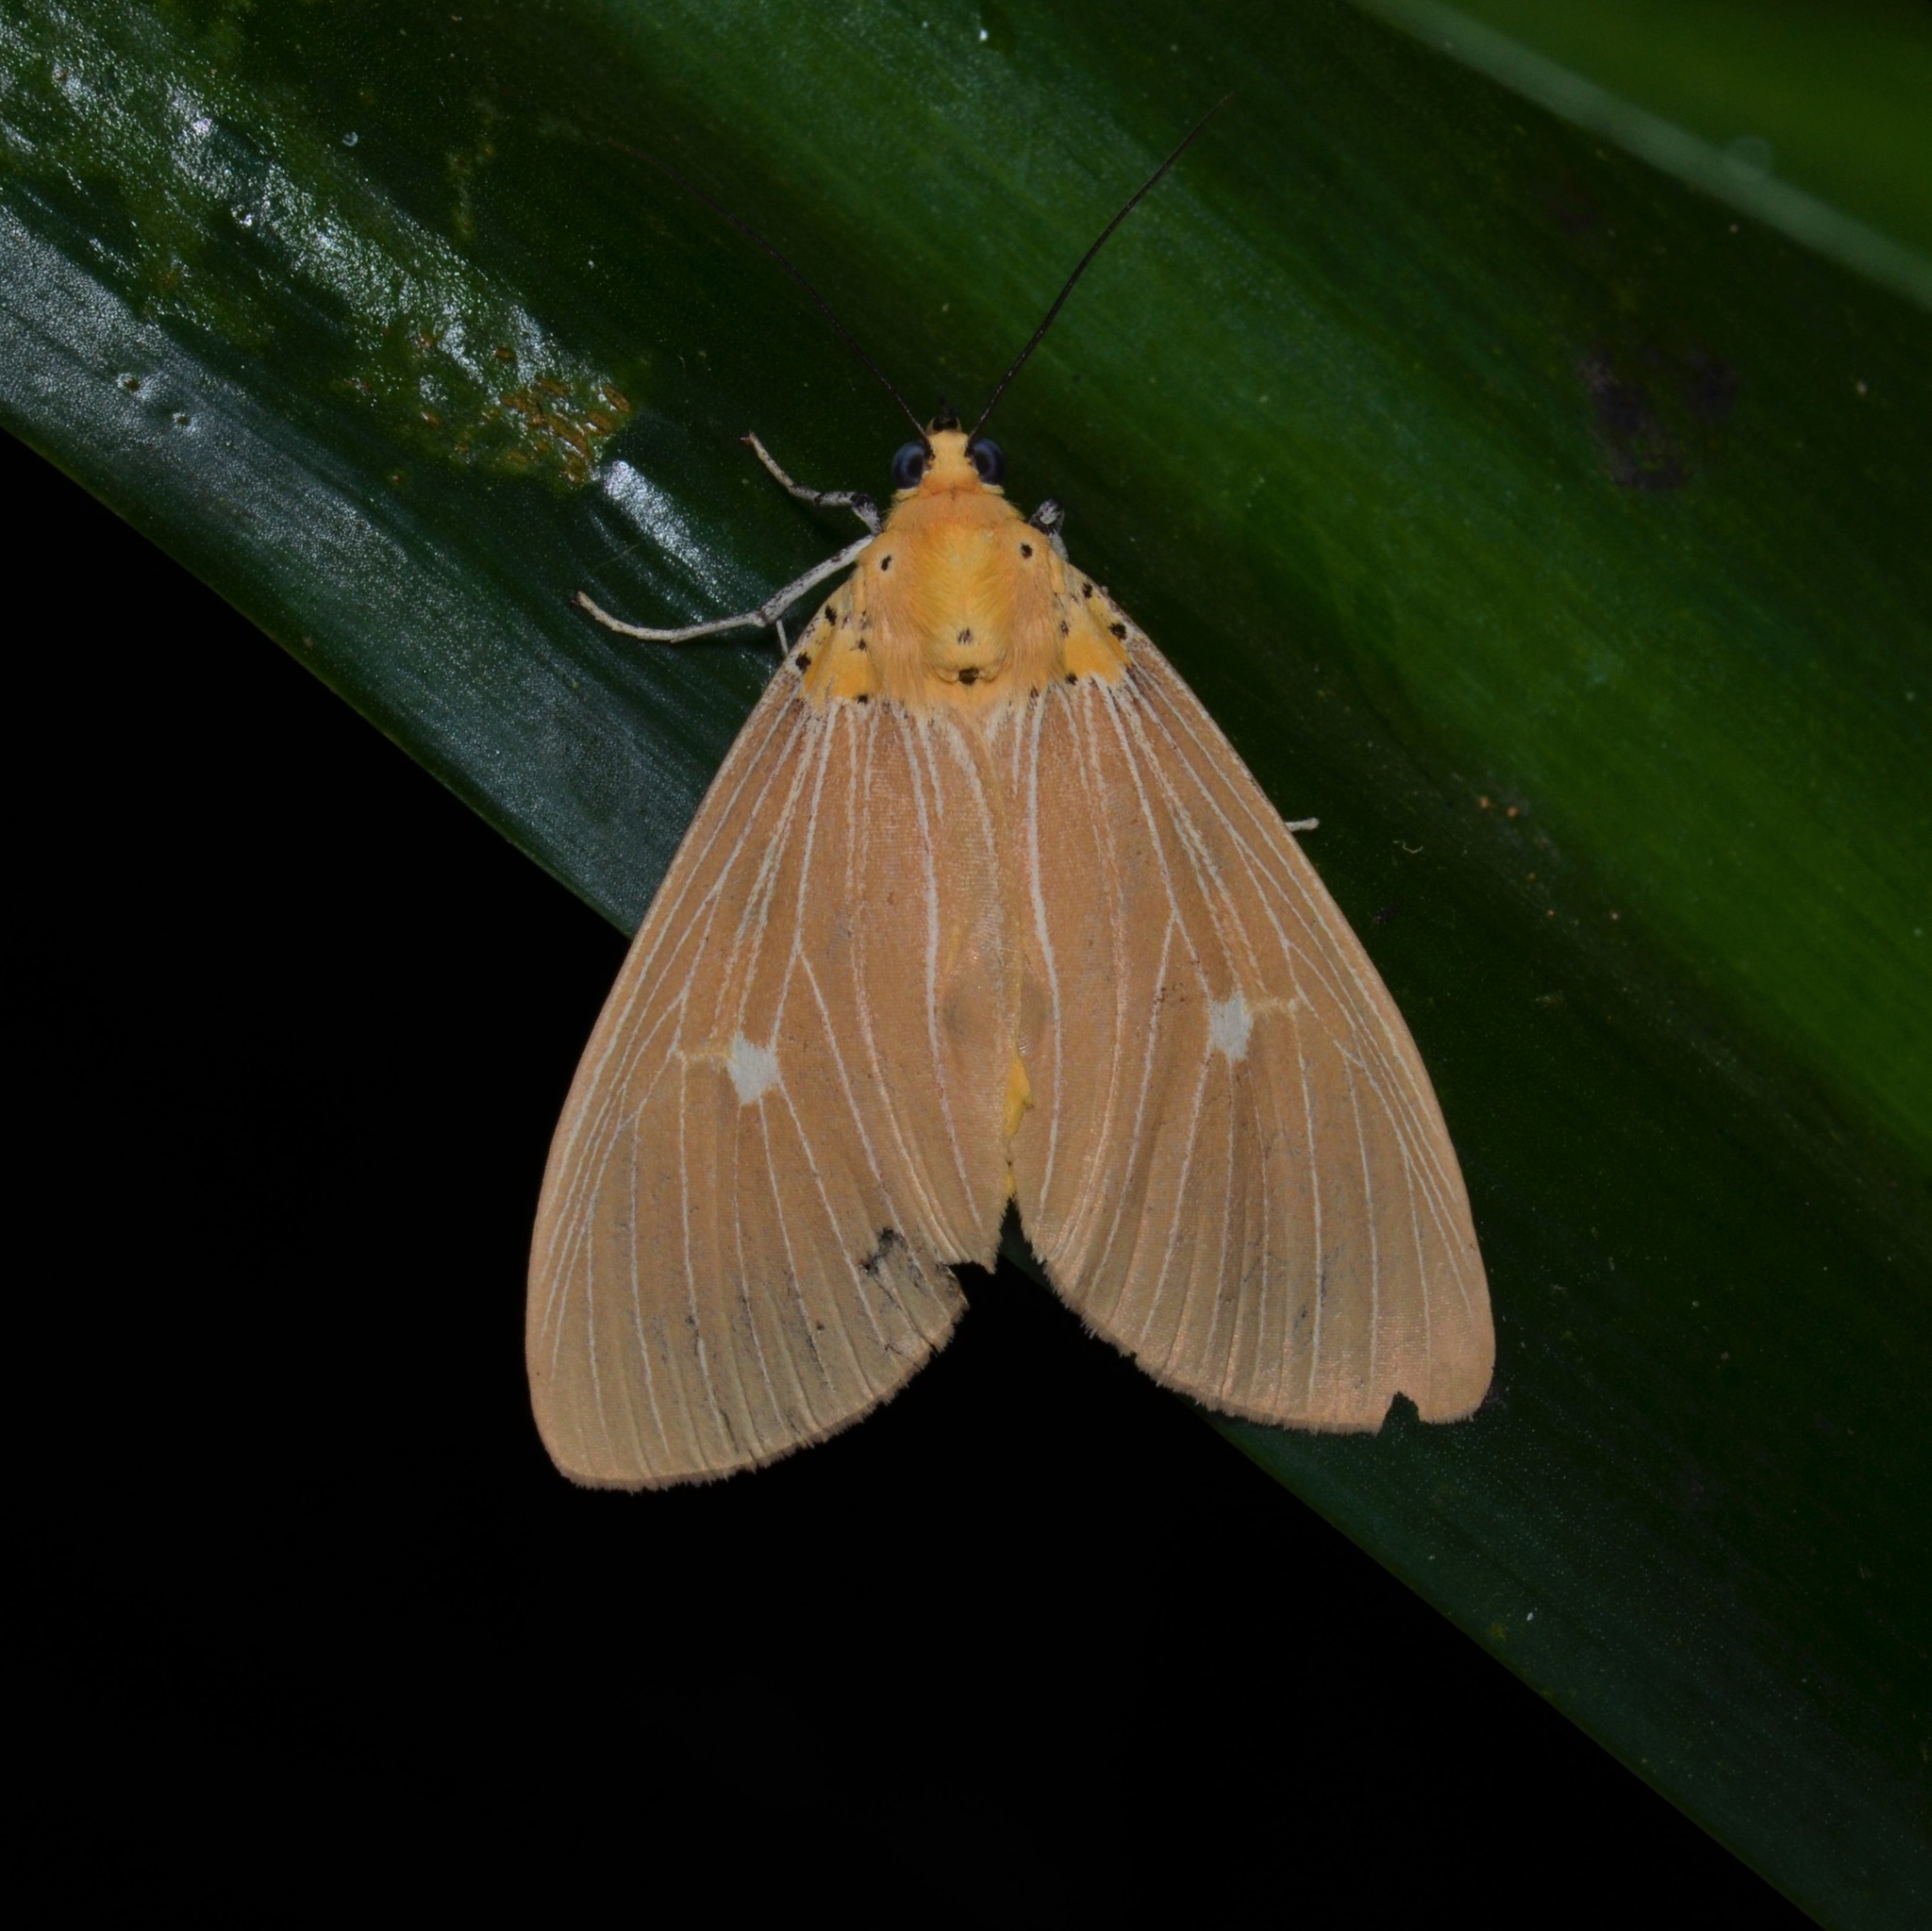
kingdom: Animalia
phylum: Arthropoda
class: Insecta
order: Lepidoptera
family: Erebidae
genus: Asota
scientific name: Asota caricae
